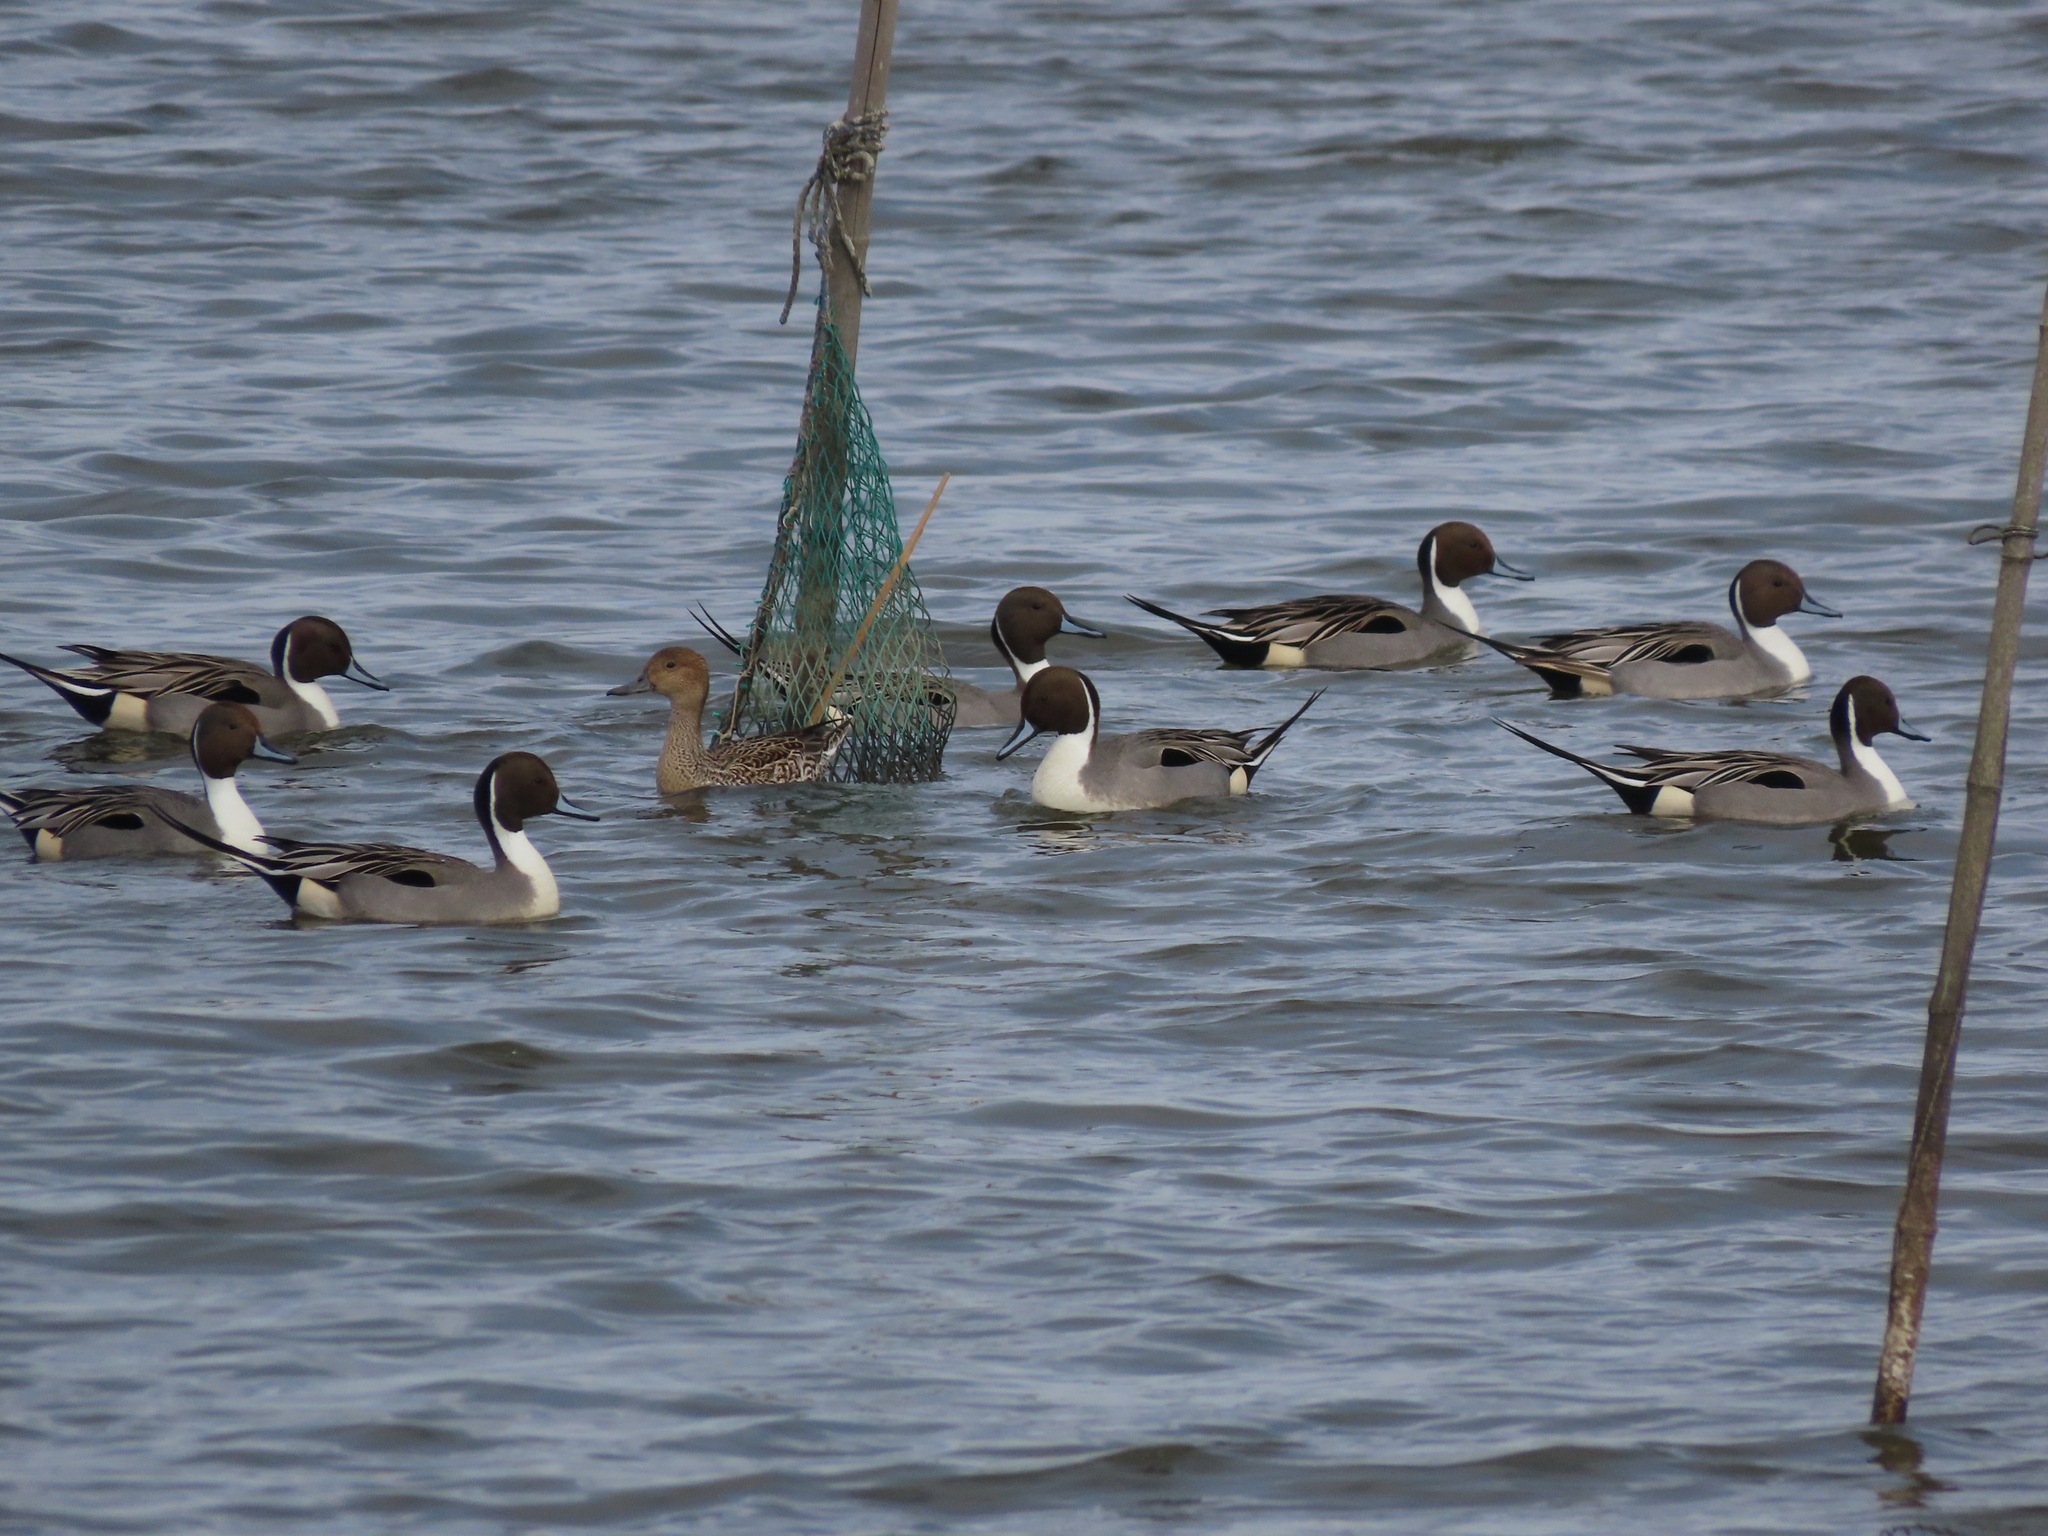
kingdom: Animalia
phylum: Chordata
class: Aves
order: Anseriformes
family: Anatidae
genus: Anas
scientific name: Anas acuta
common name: Northern pintail
